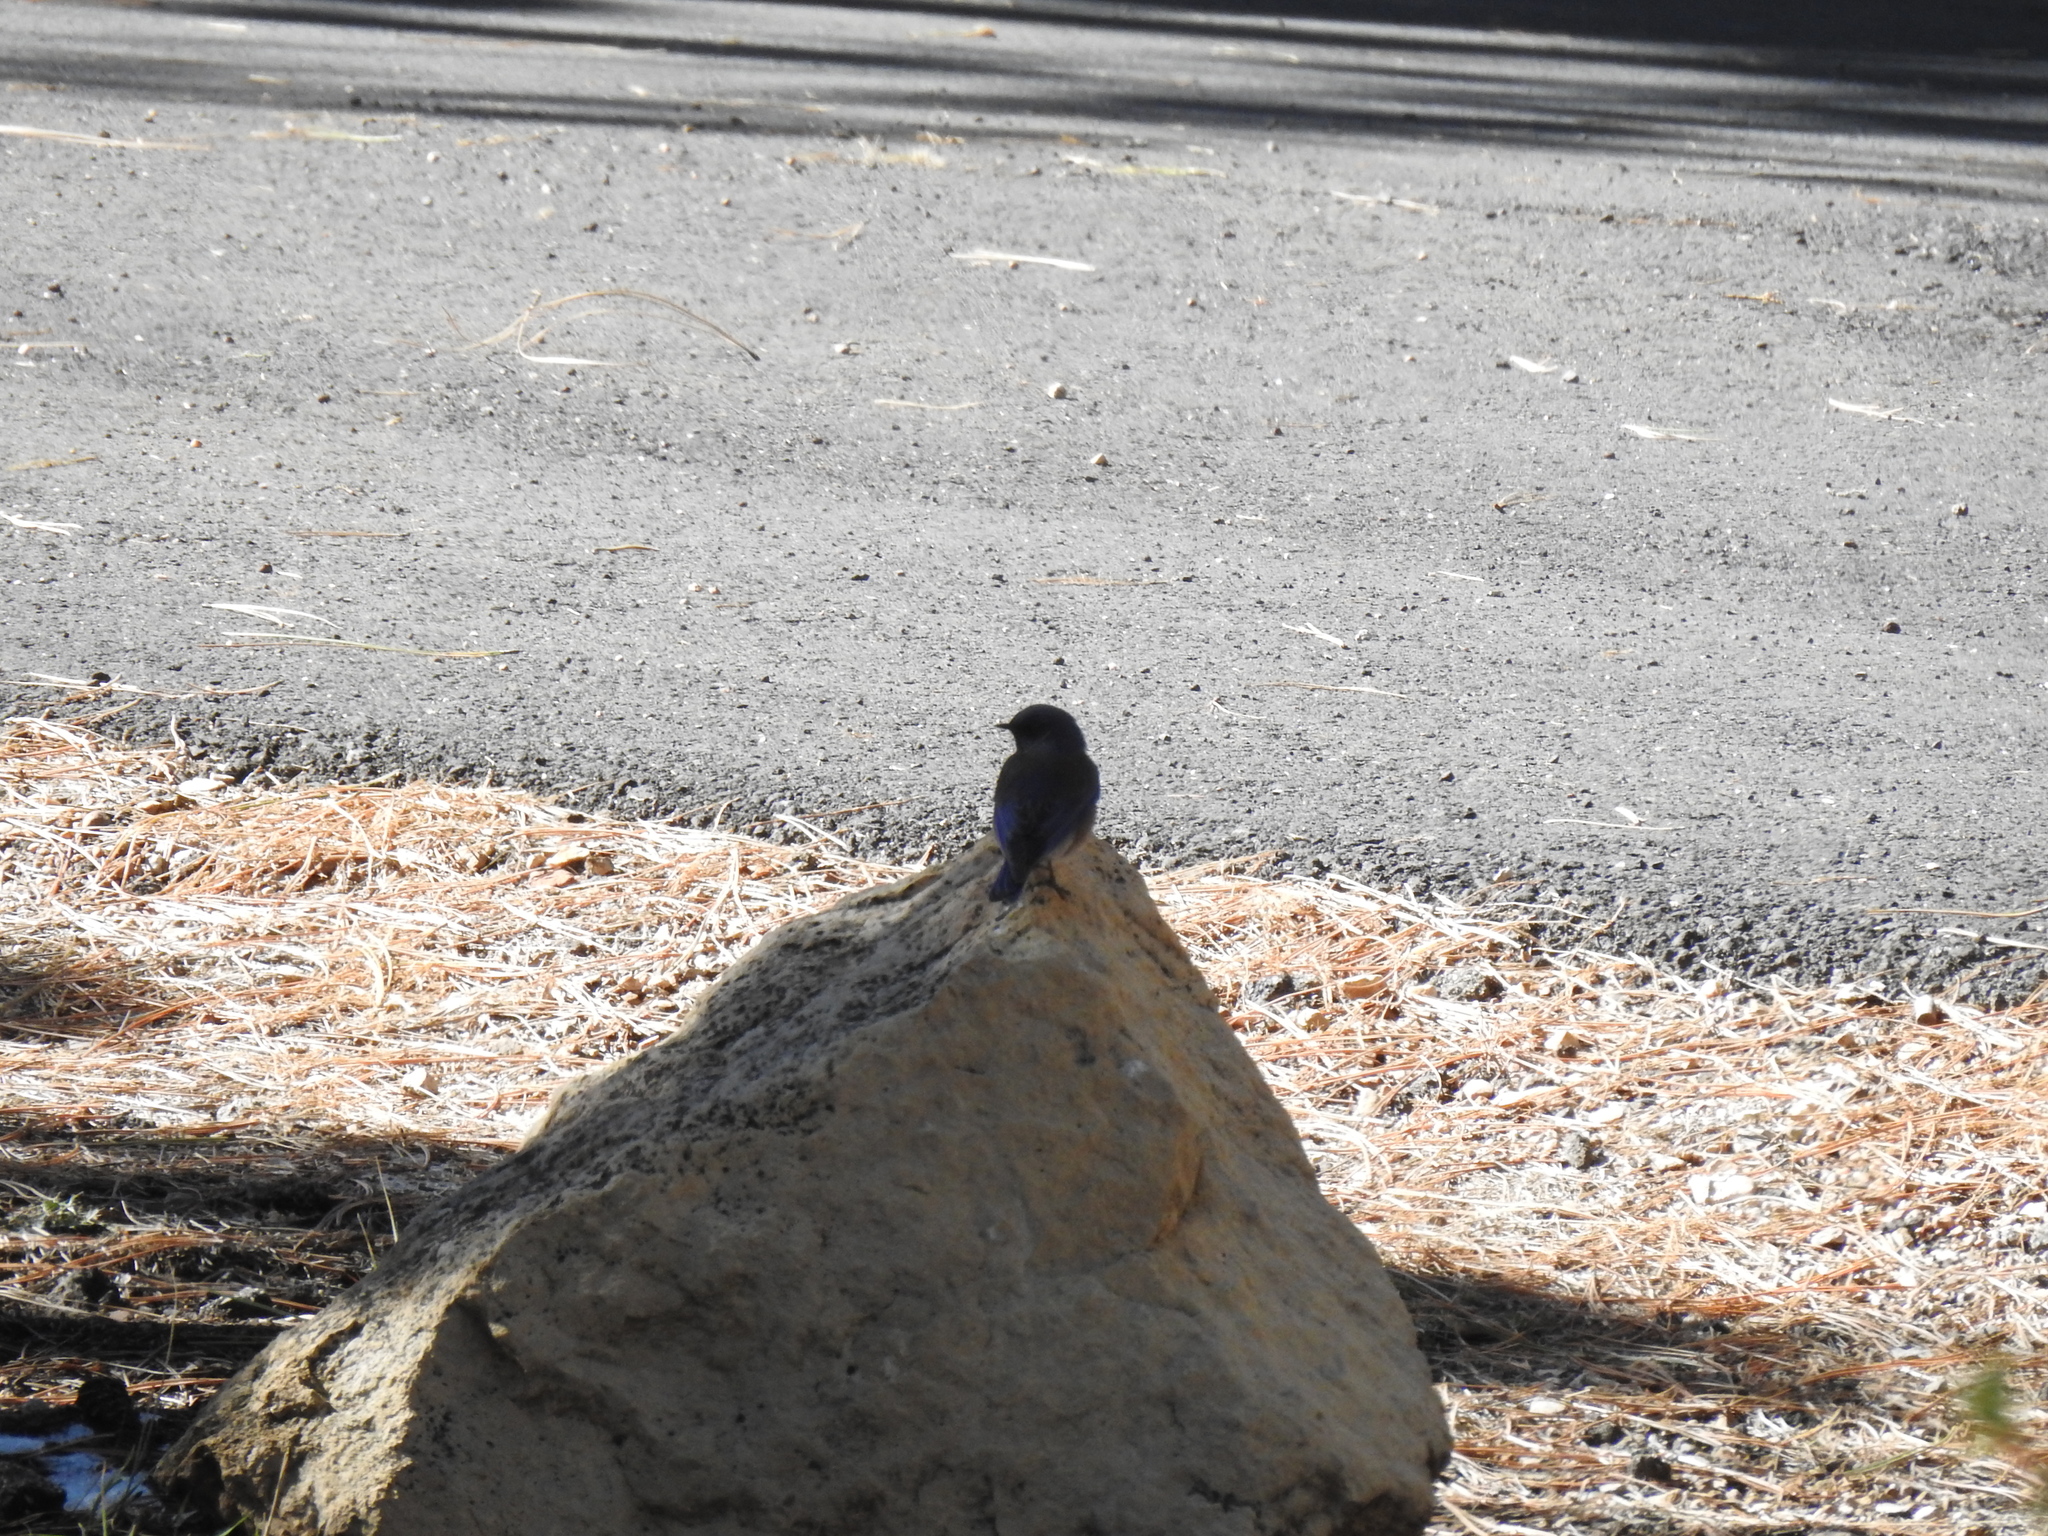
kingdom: Animalia
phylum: Chordata
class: Aves
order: Passeriformes
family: Turdidae
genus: Sialia
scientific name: Sialia mexicana
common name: Western bluebird
